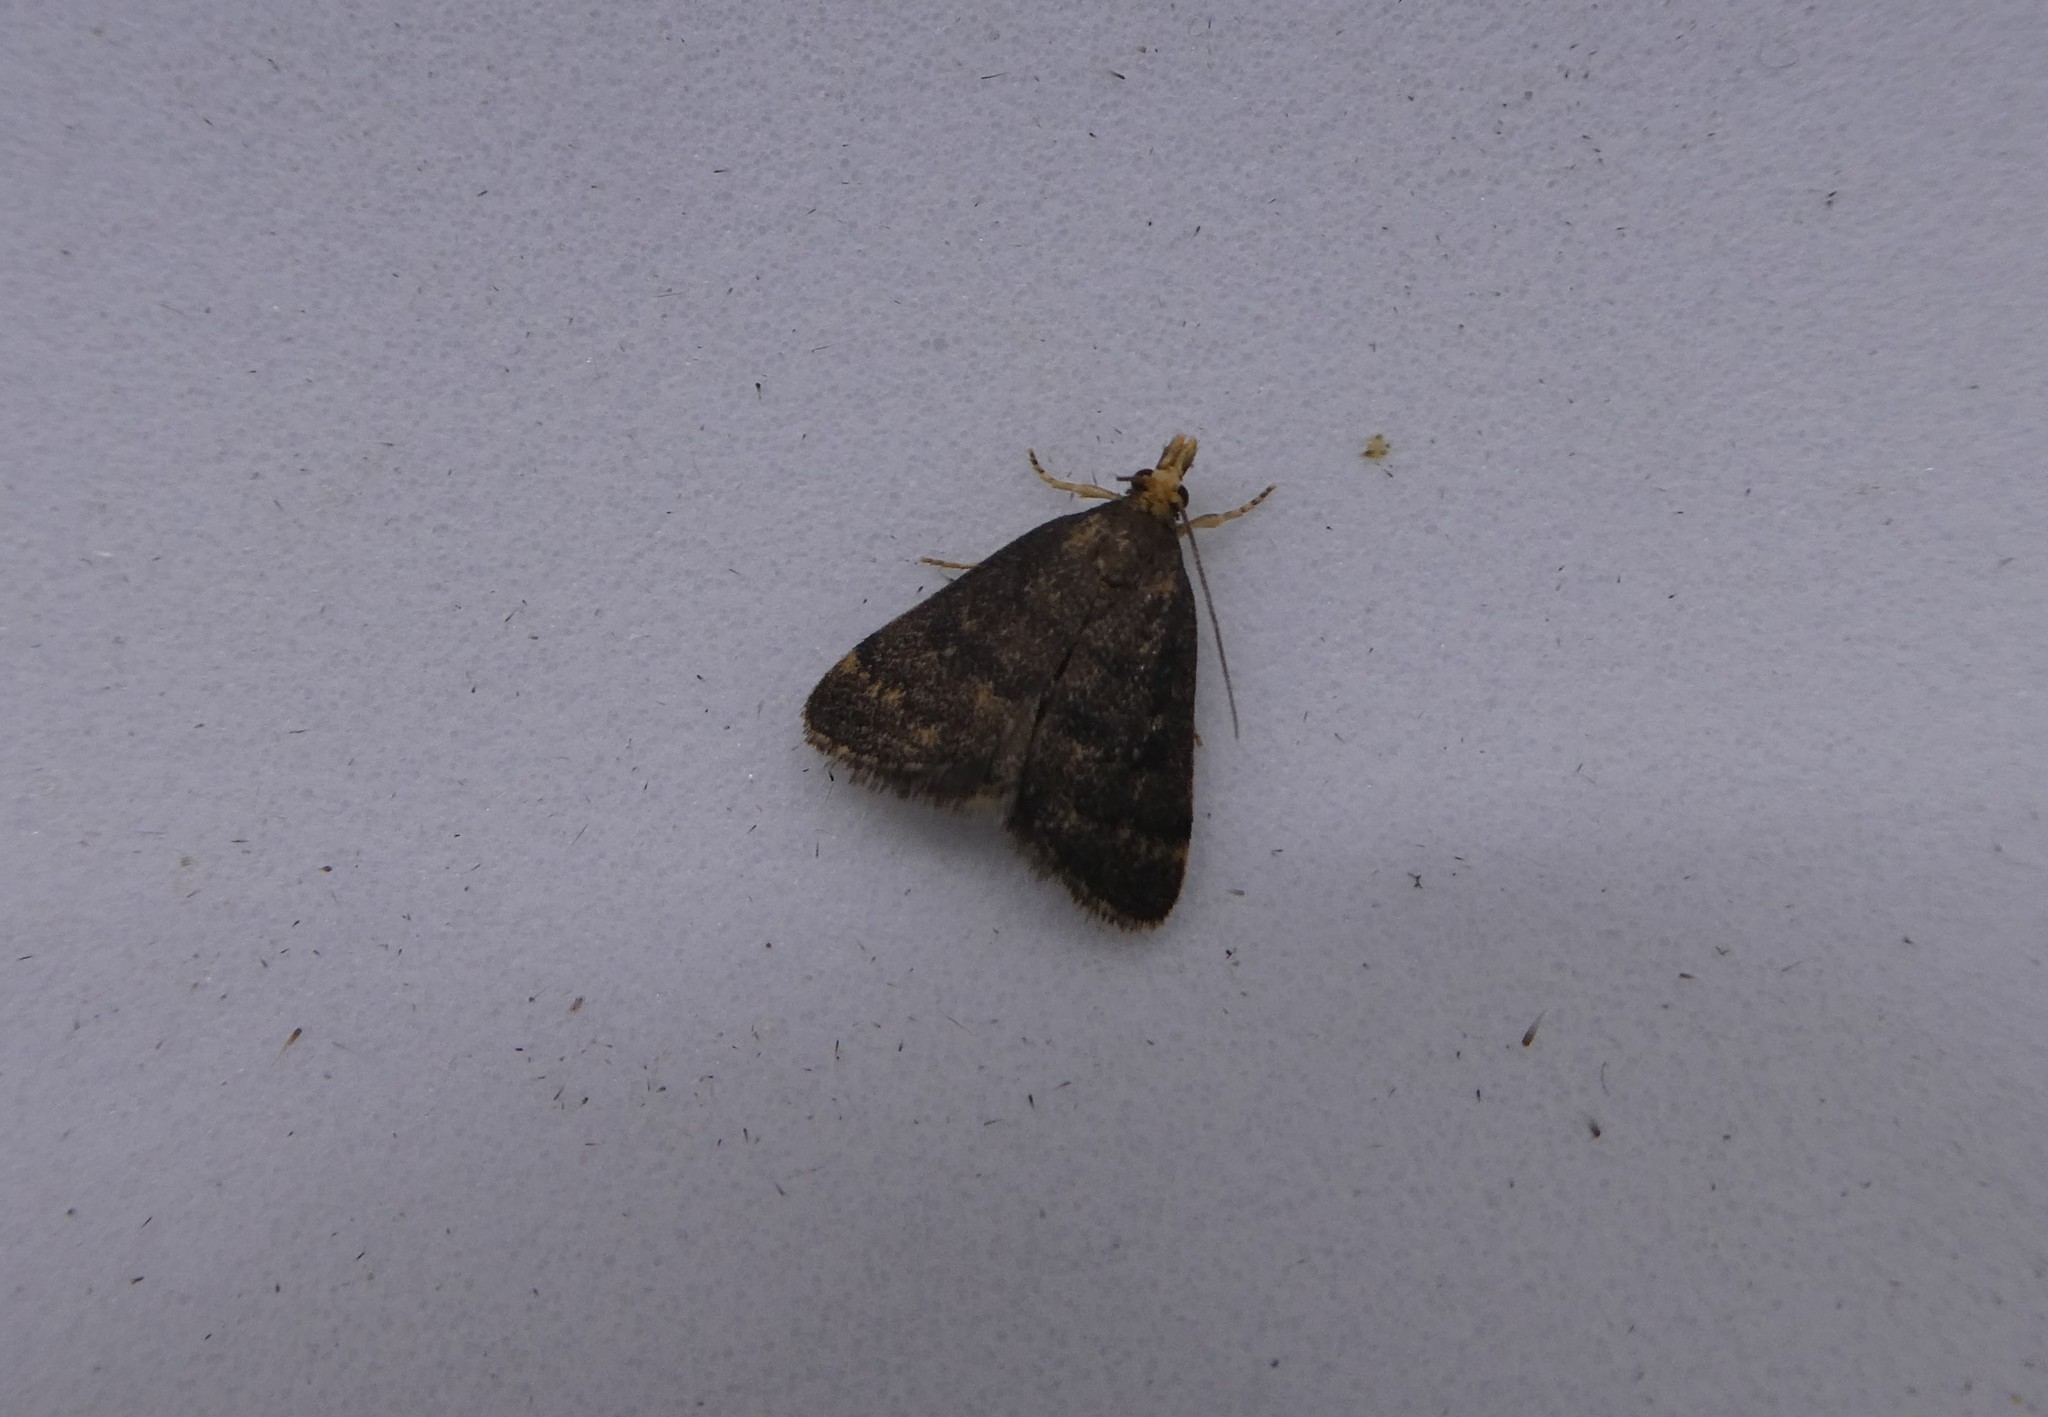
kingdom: Animalia
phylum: Arthropoda
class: Insecta
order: Lepidoptera
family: Crambidae
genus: Pyrausta
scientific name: Pyrausta merrickalis
